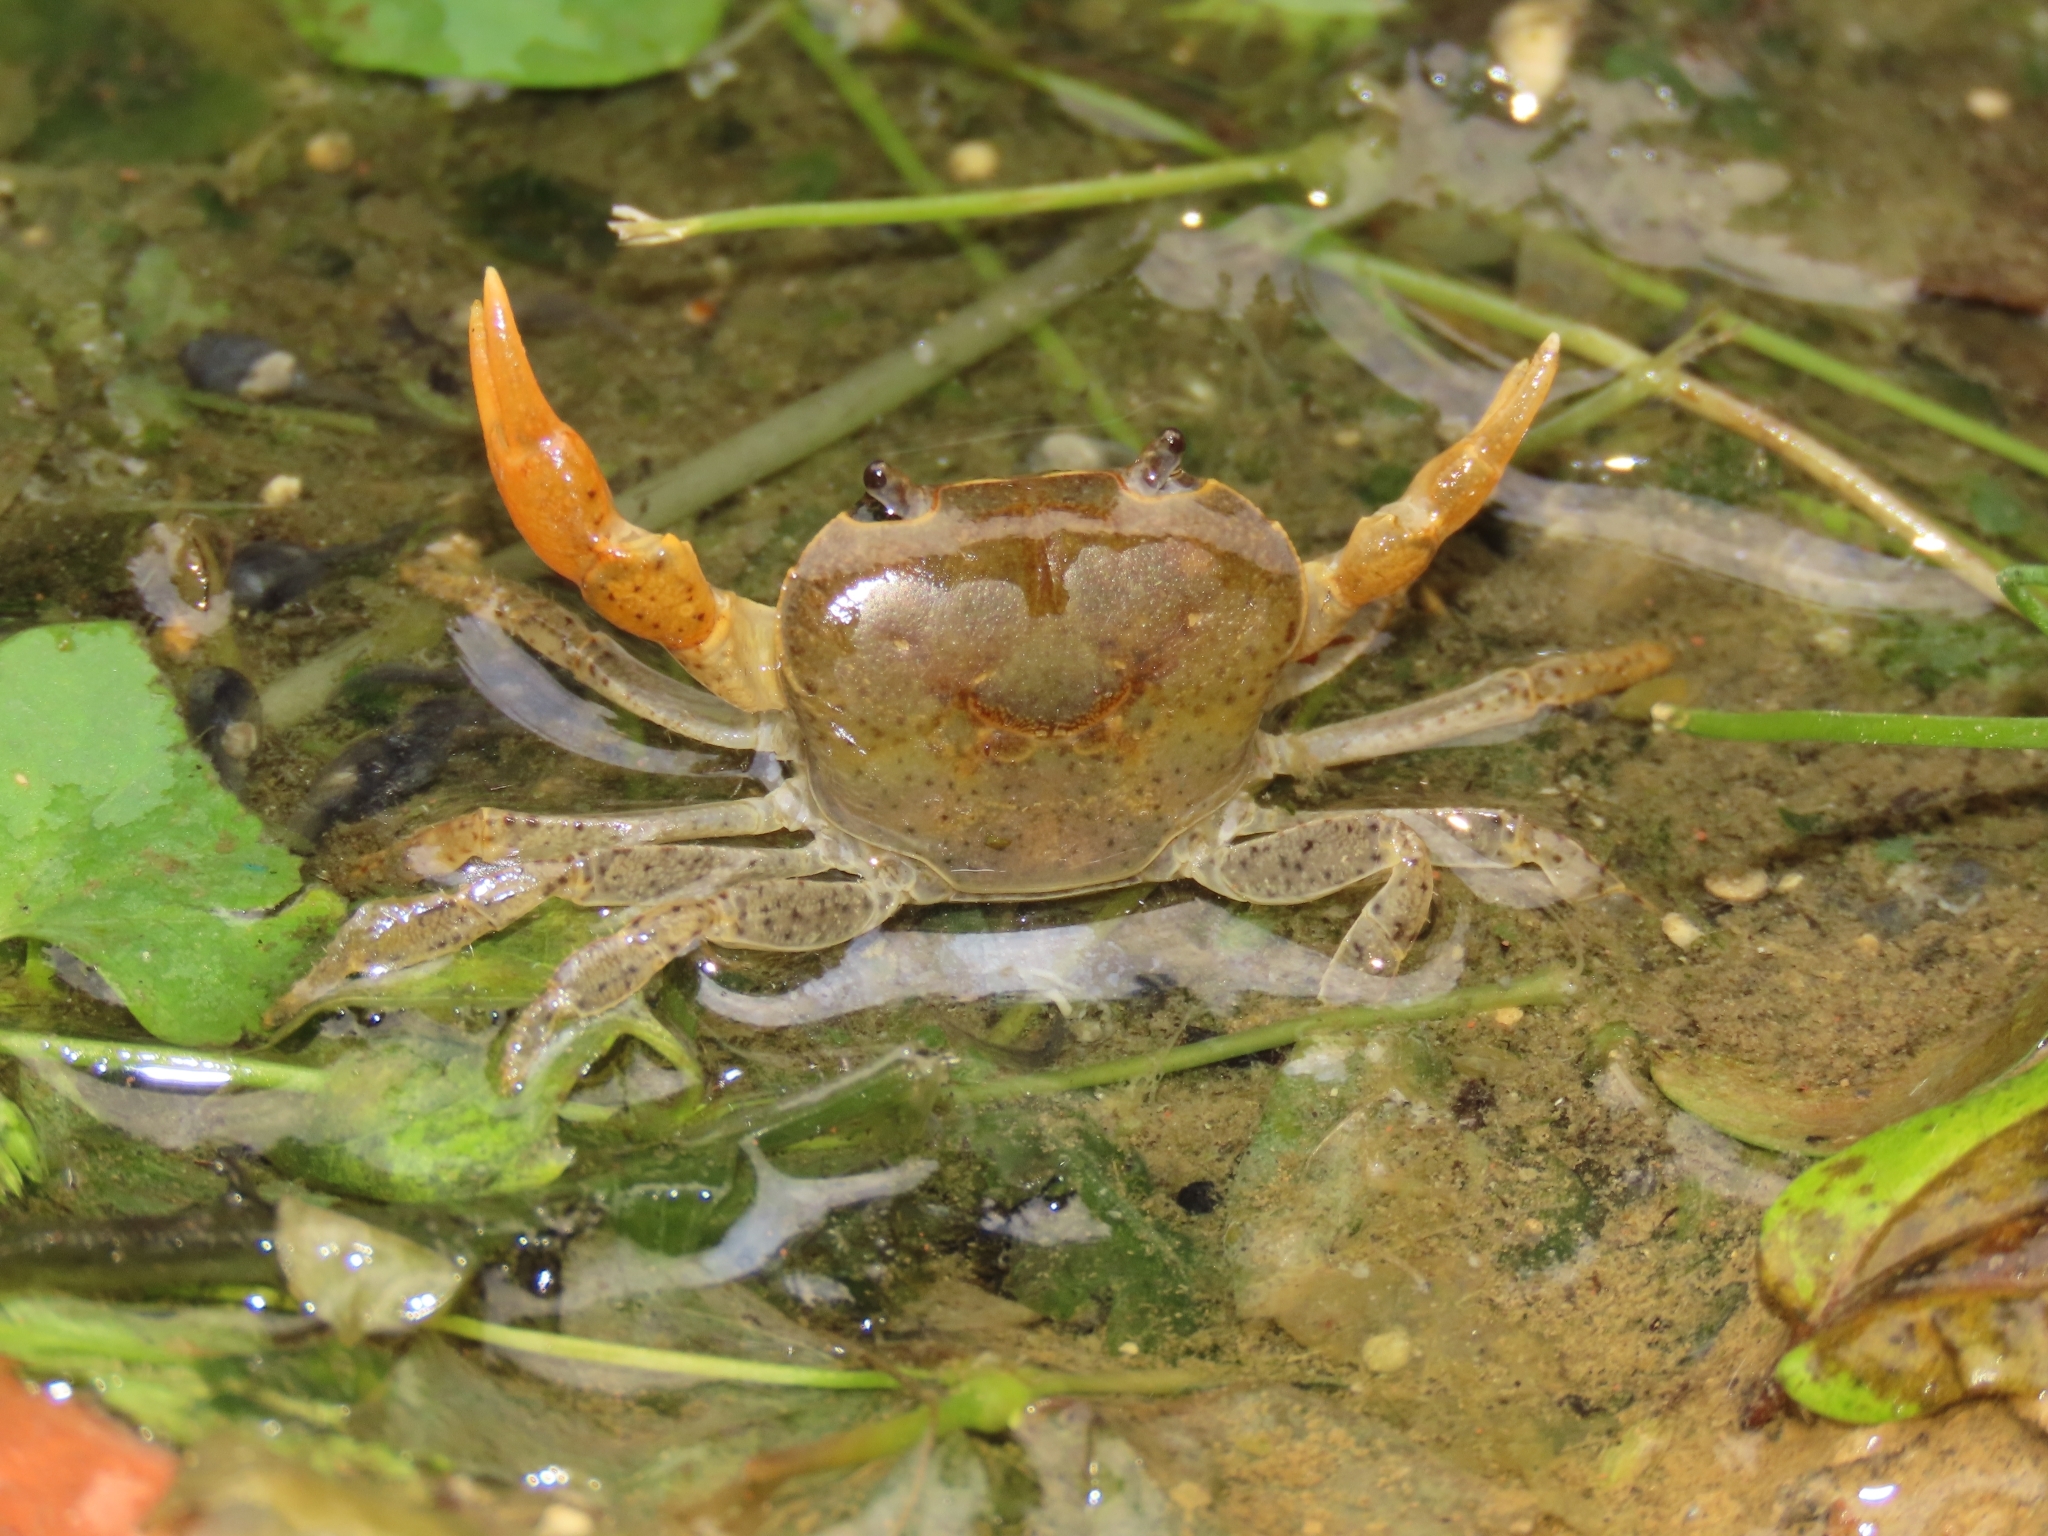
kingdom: Animalia
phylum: Arthropoda
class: Malacostraca
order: Decapoda
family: Potamidae
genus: Geothelphusa
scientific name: Geothelphusa eucrinodonta
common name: Ze significant tooth crab
